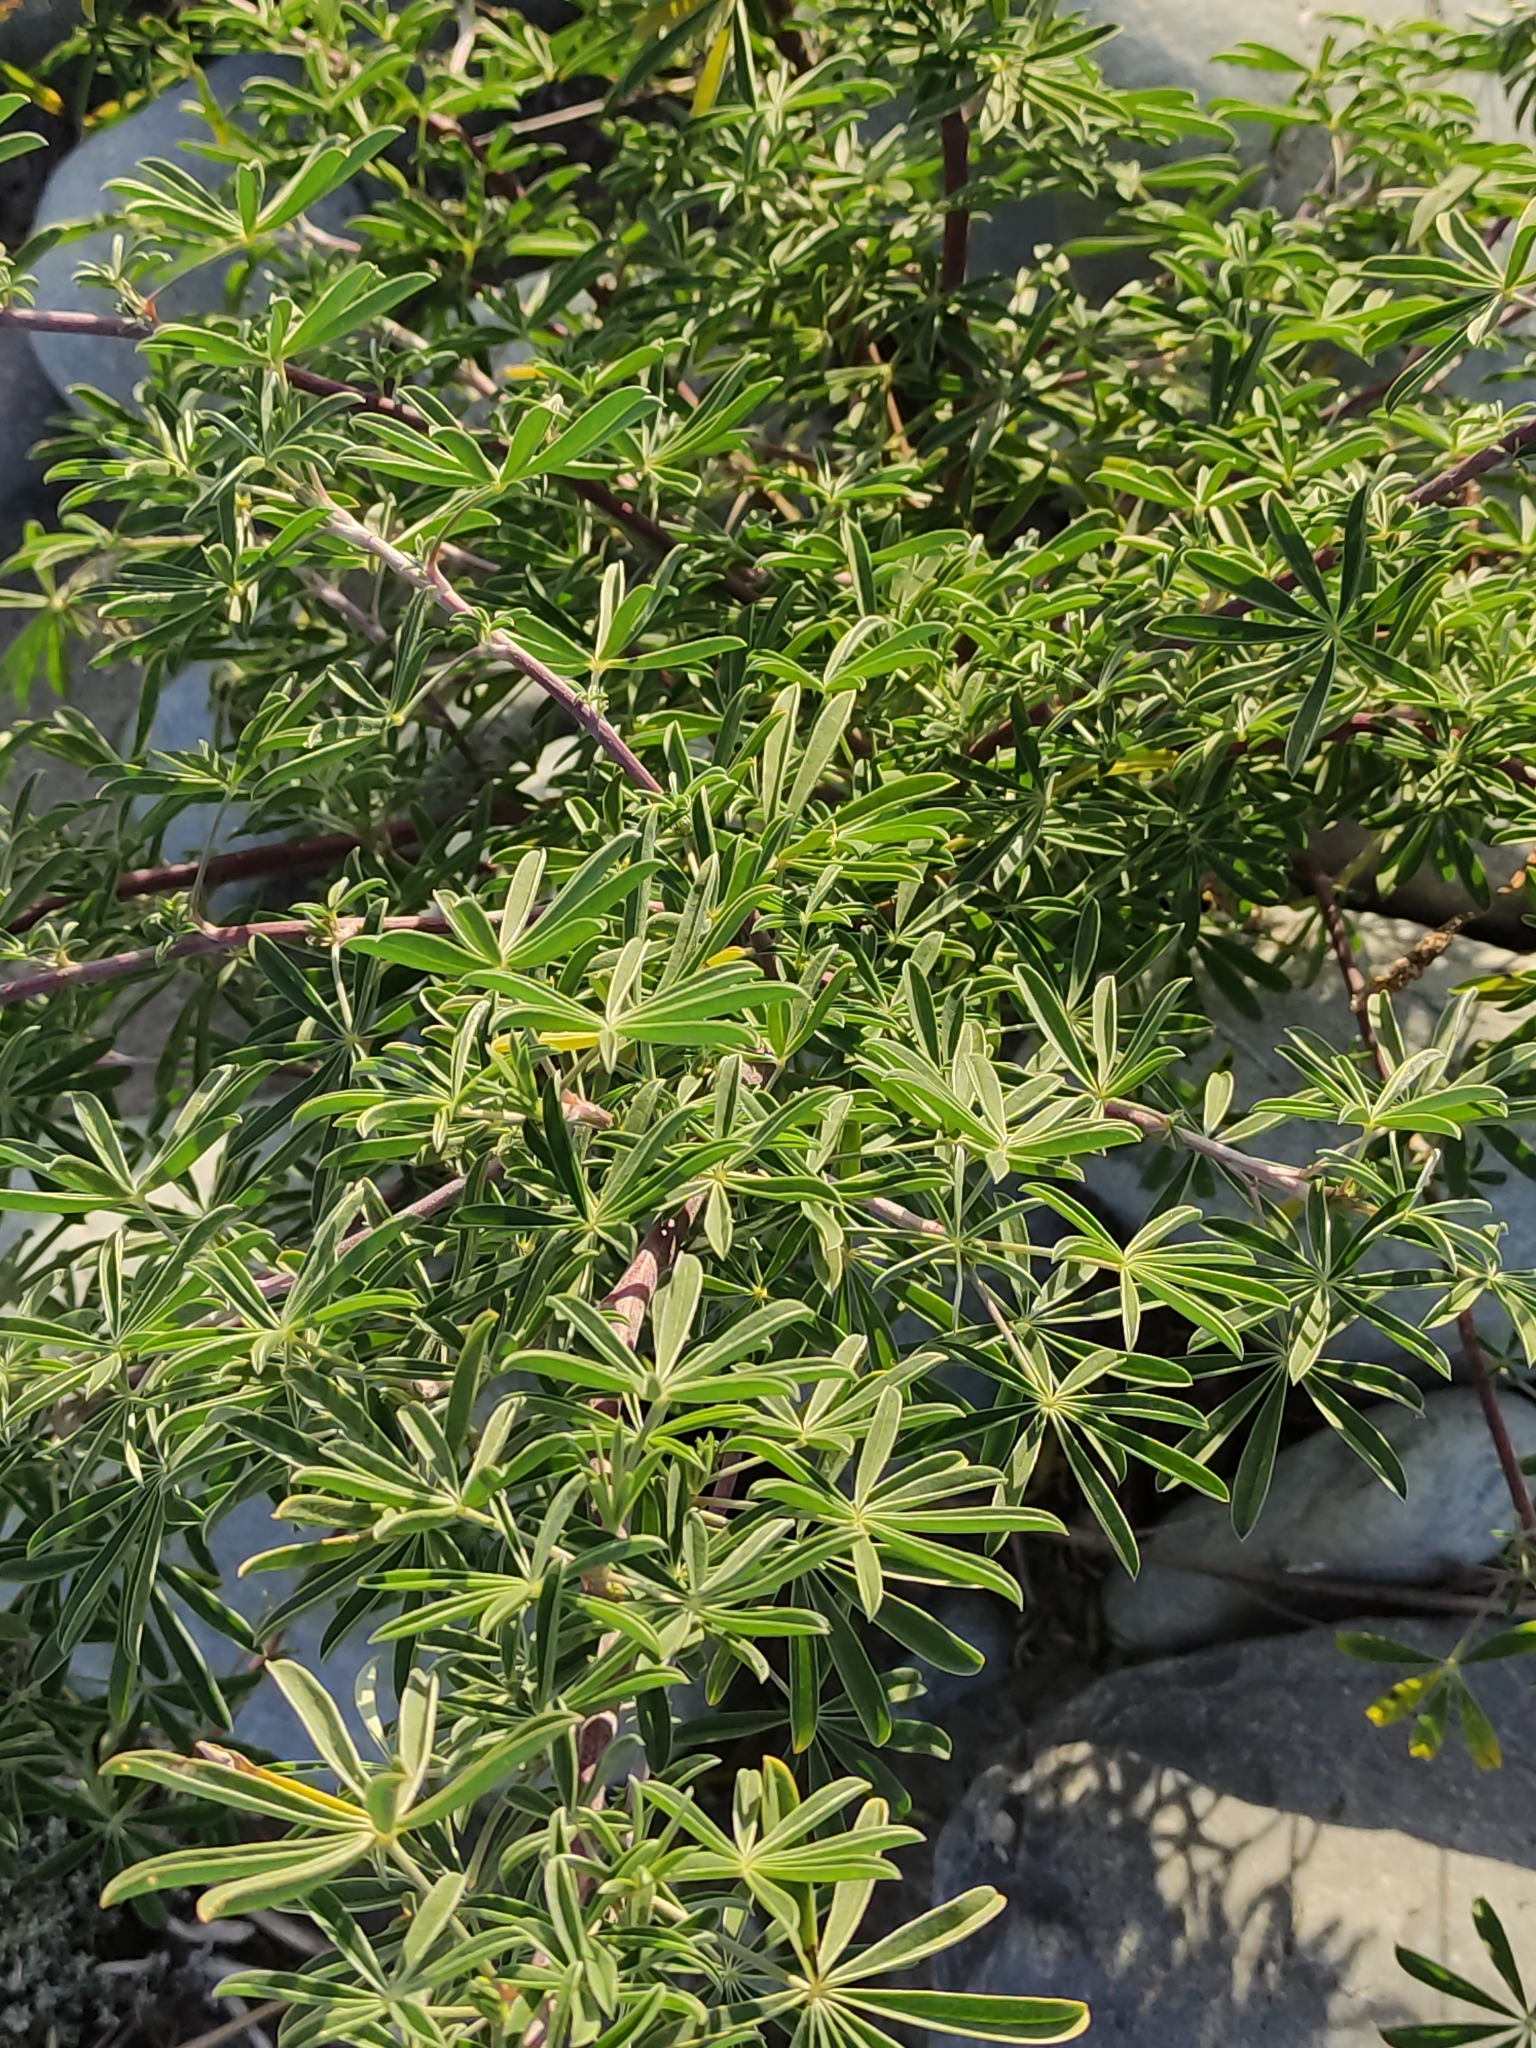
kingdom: Plantae
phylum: Tracheophyta
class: Magnoliopsida
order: Fabales
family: Fabaceae
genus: Lupinus
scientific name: Lupinus arboreus
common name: Yellow bush lupine
